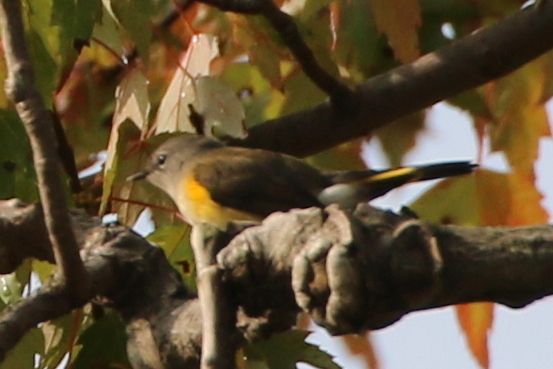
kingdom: Animalia
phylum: Chordata
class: Aves
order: Passeriformes
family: Parulidae
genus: Setophaga
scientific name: Setophaga ruticilla
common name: American redstart
